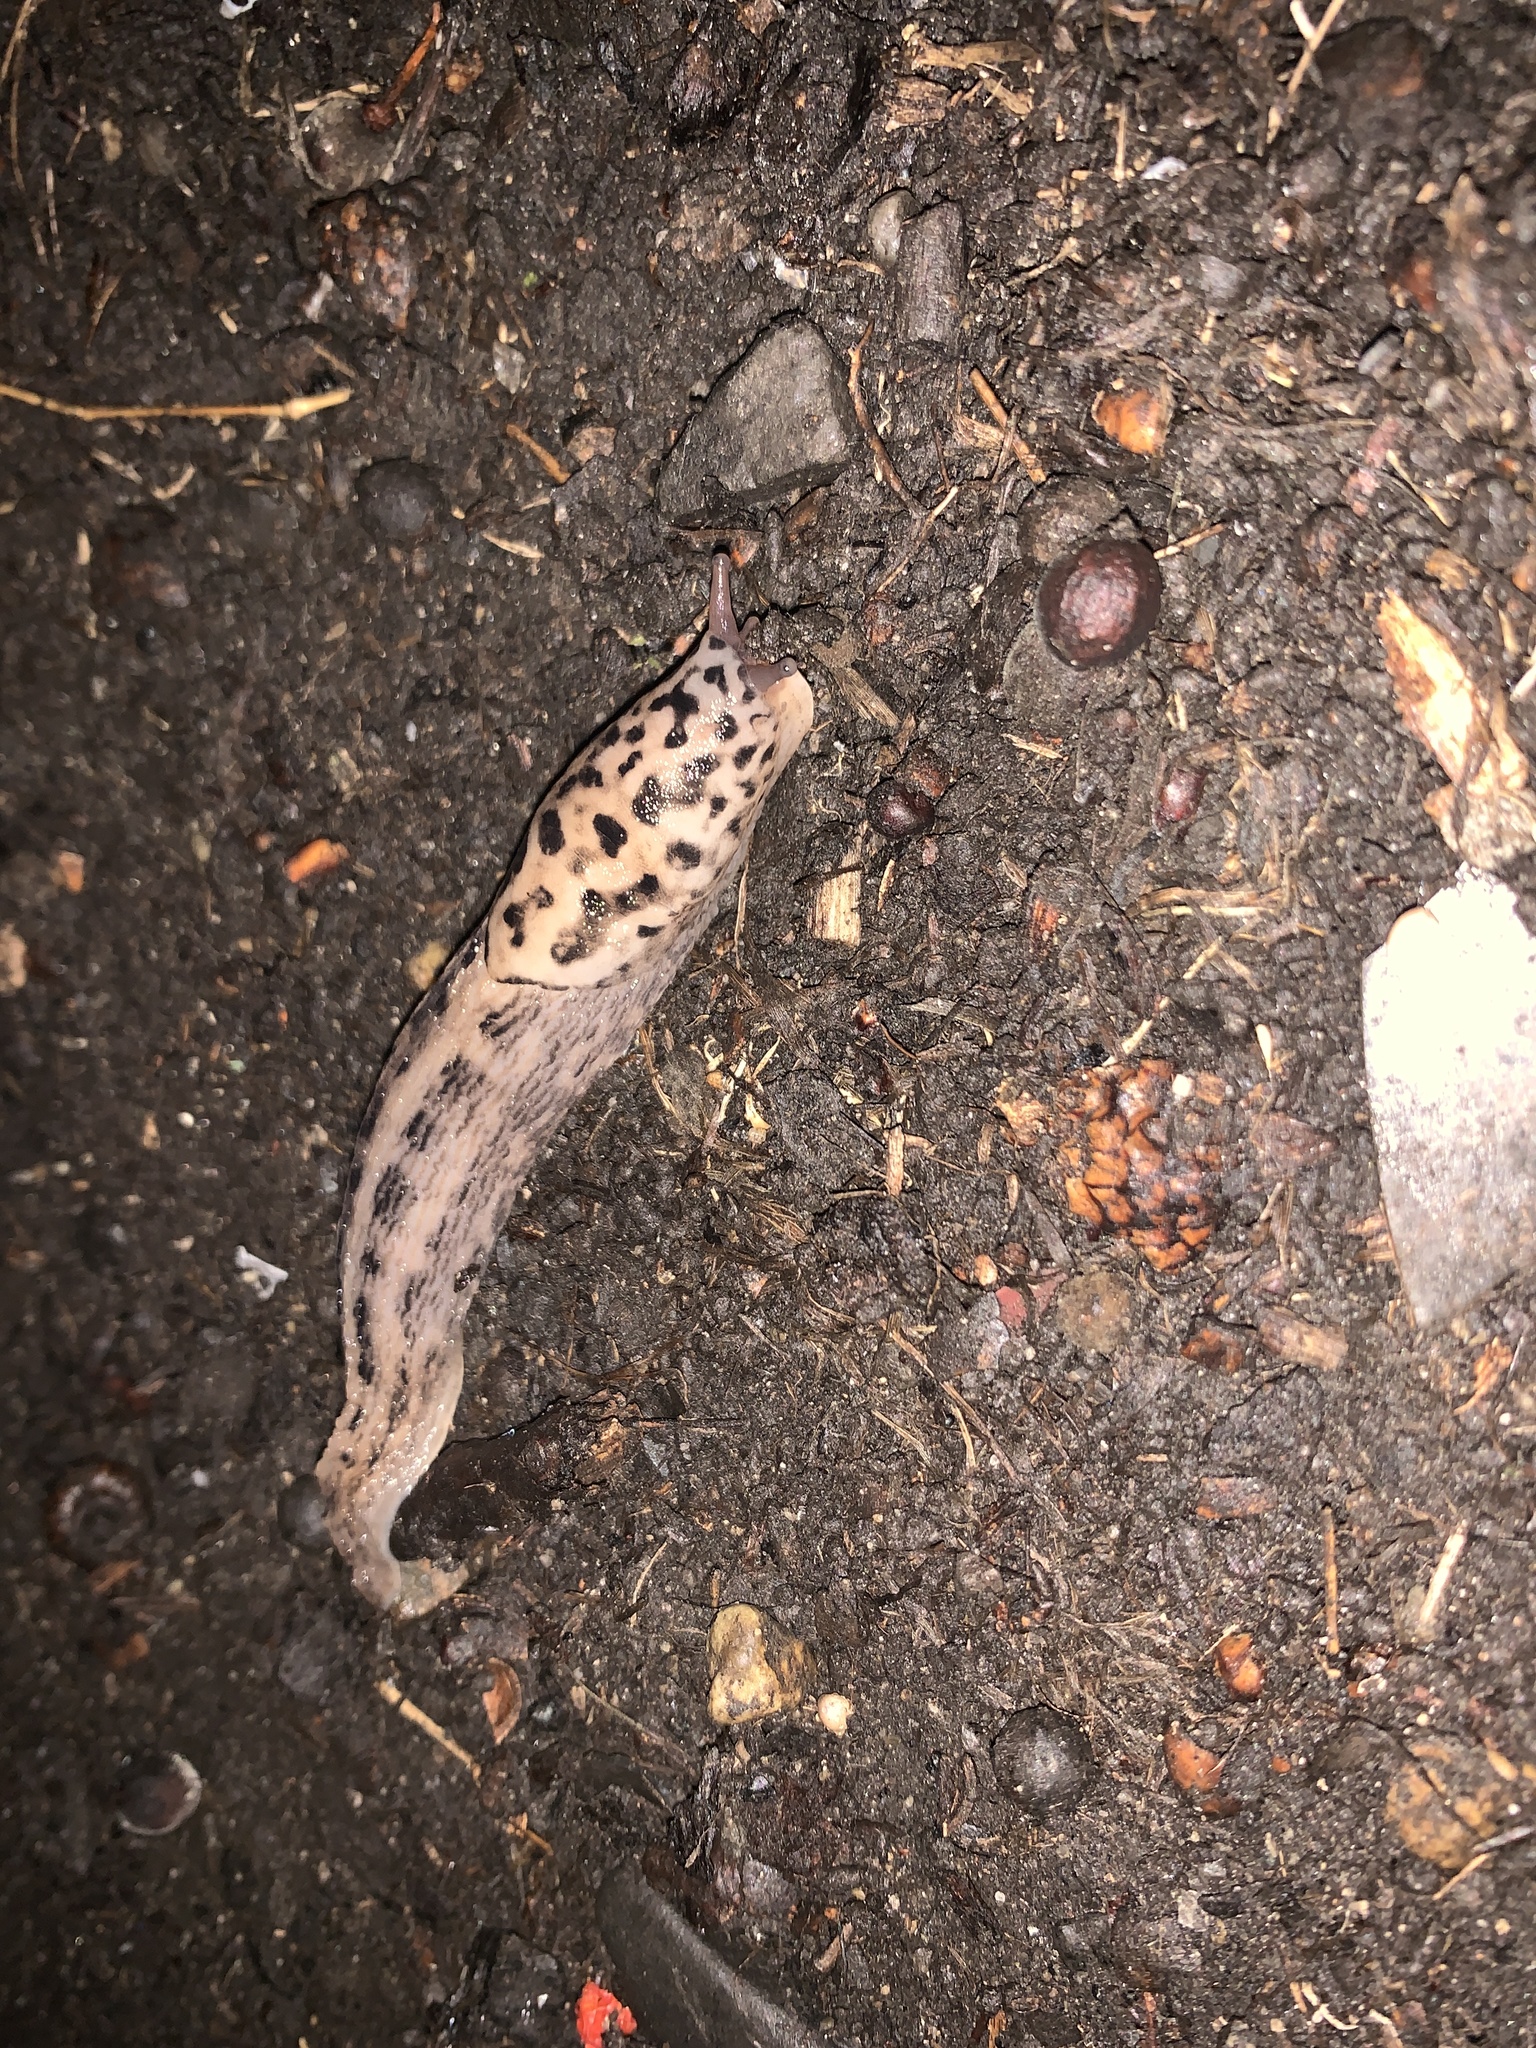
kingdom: Animalia
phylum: Mollusca
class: Gastropoda
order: Stylommatophora
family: Limacidae
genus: Limax
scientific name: Limax maximus
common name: Great grey slug
